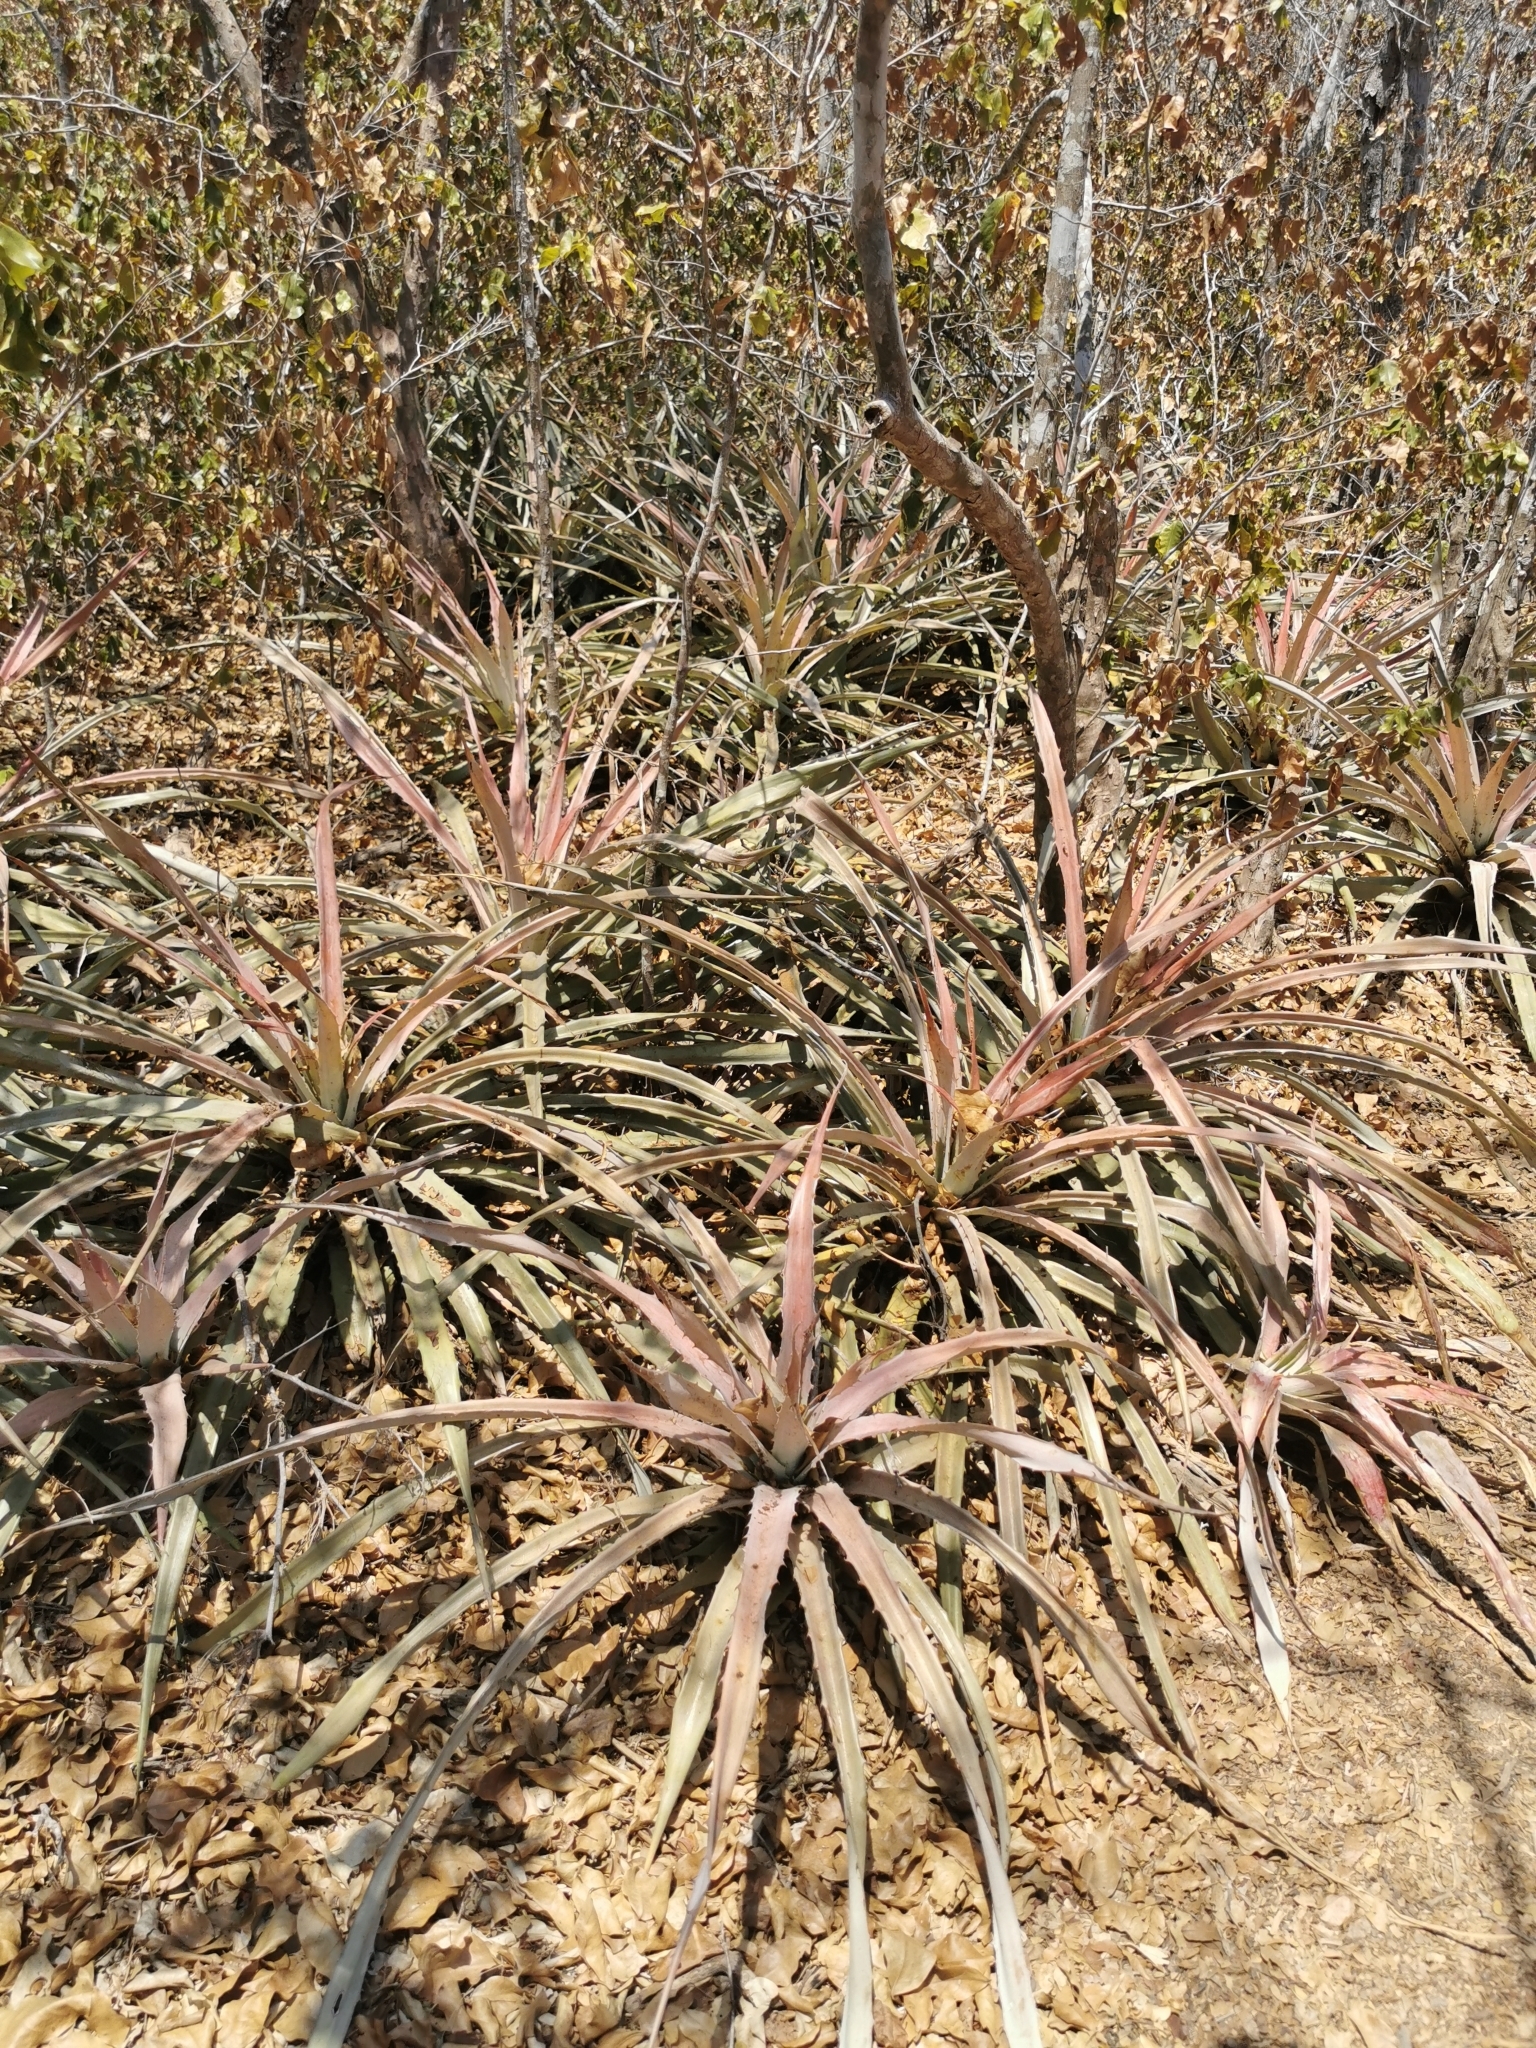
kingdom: Plantae
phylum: Tracheophyta
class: Liliopsida
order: Poales
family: Bromeliaceae
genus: Bromelia
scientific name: Bromelia pinguin
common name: Pinguin
